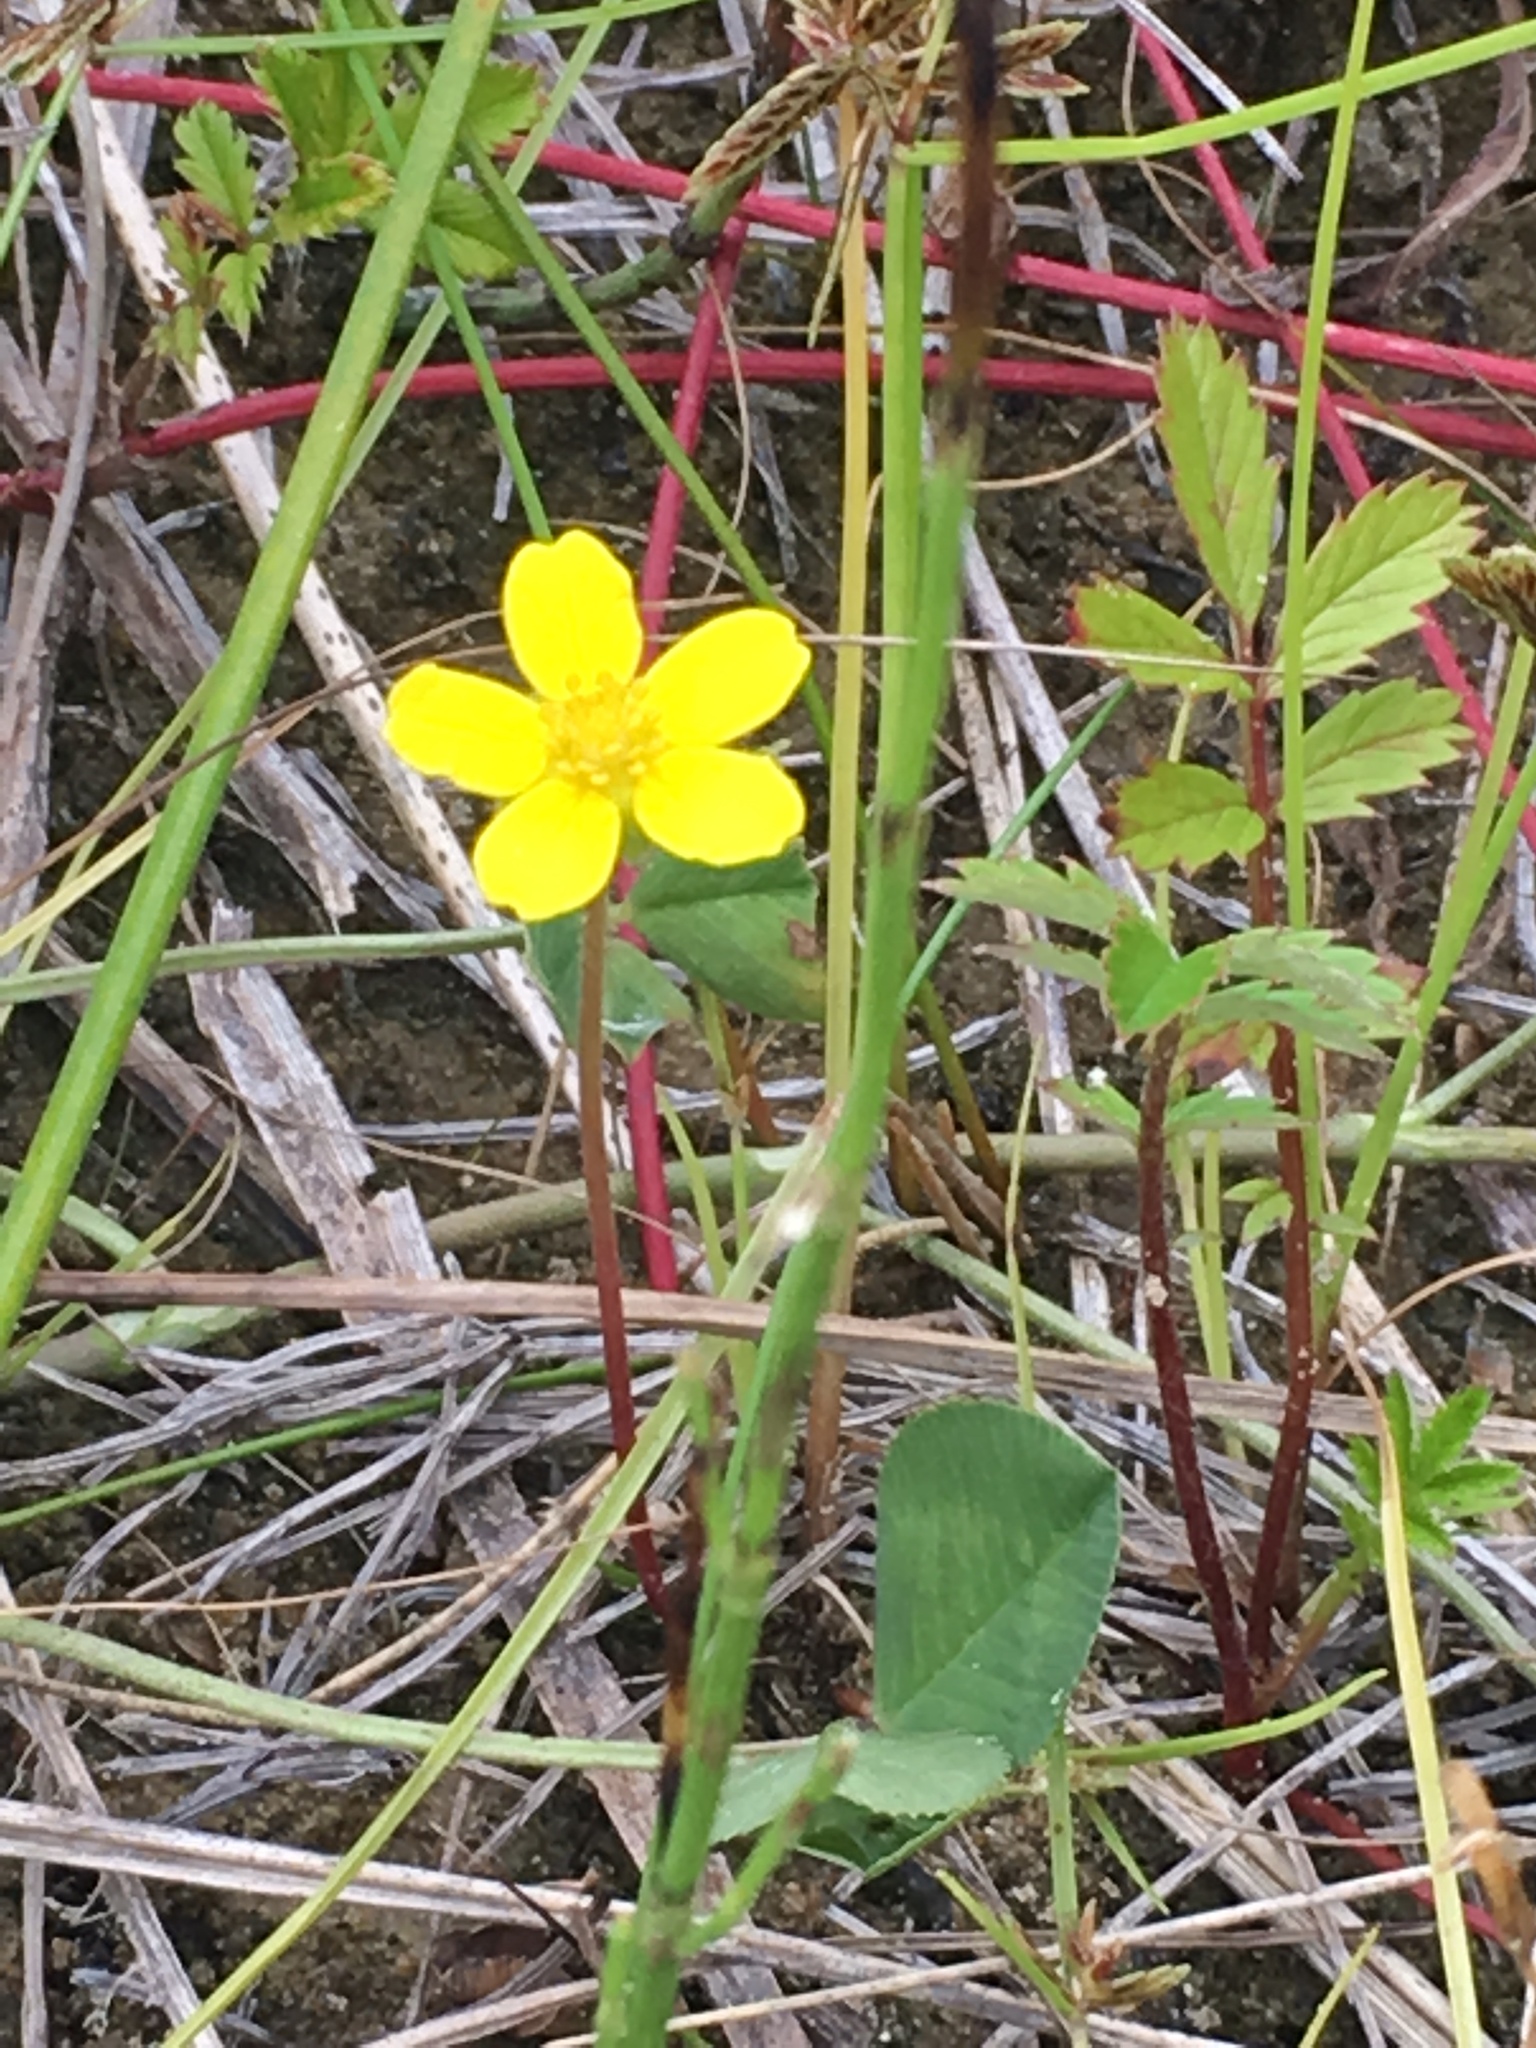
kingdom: Plantae
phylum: Tracheophyta
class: Magnoliopsida
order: Rosales
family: Rosaceae
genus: Argentina
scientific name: Argentina anserina
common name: Common silverweed
